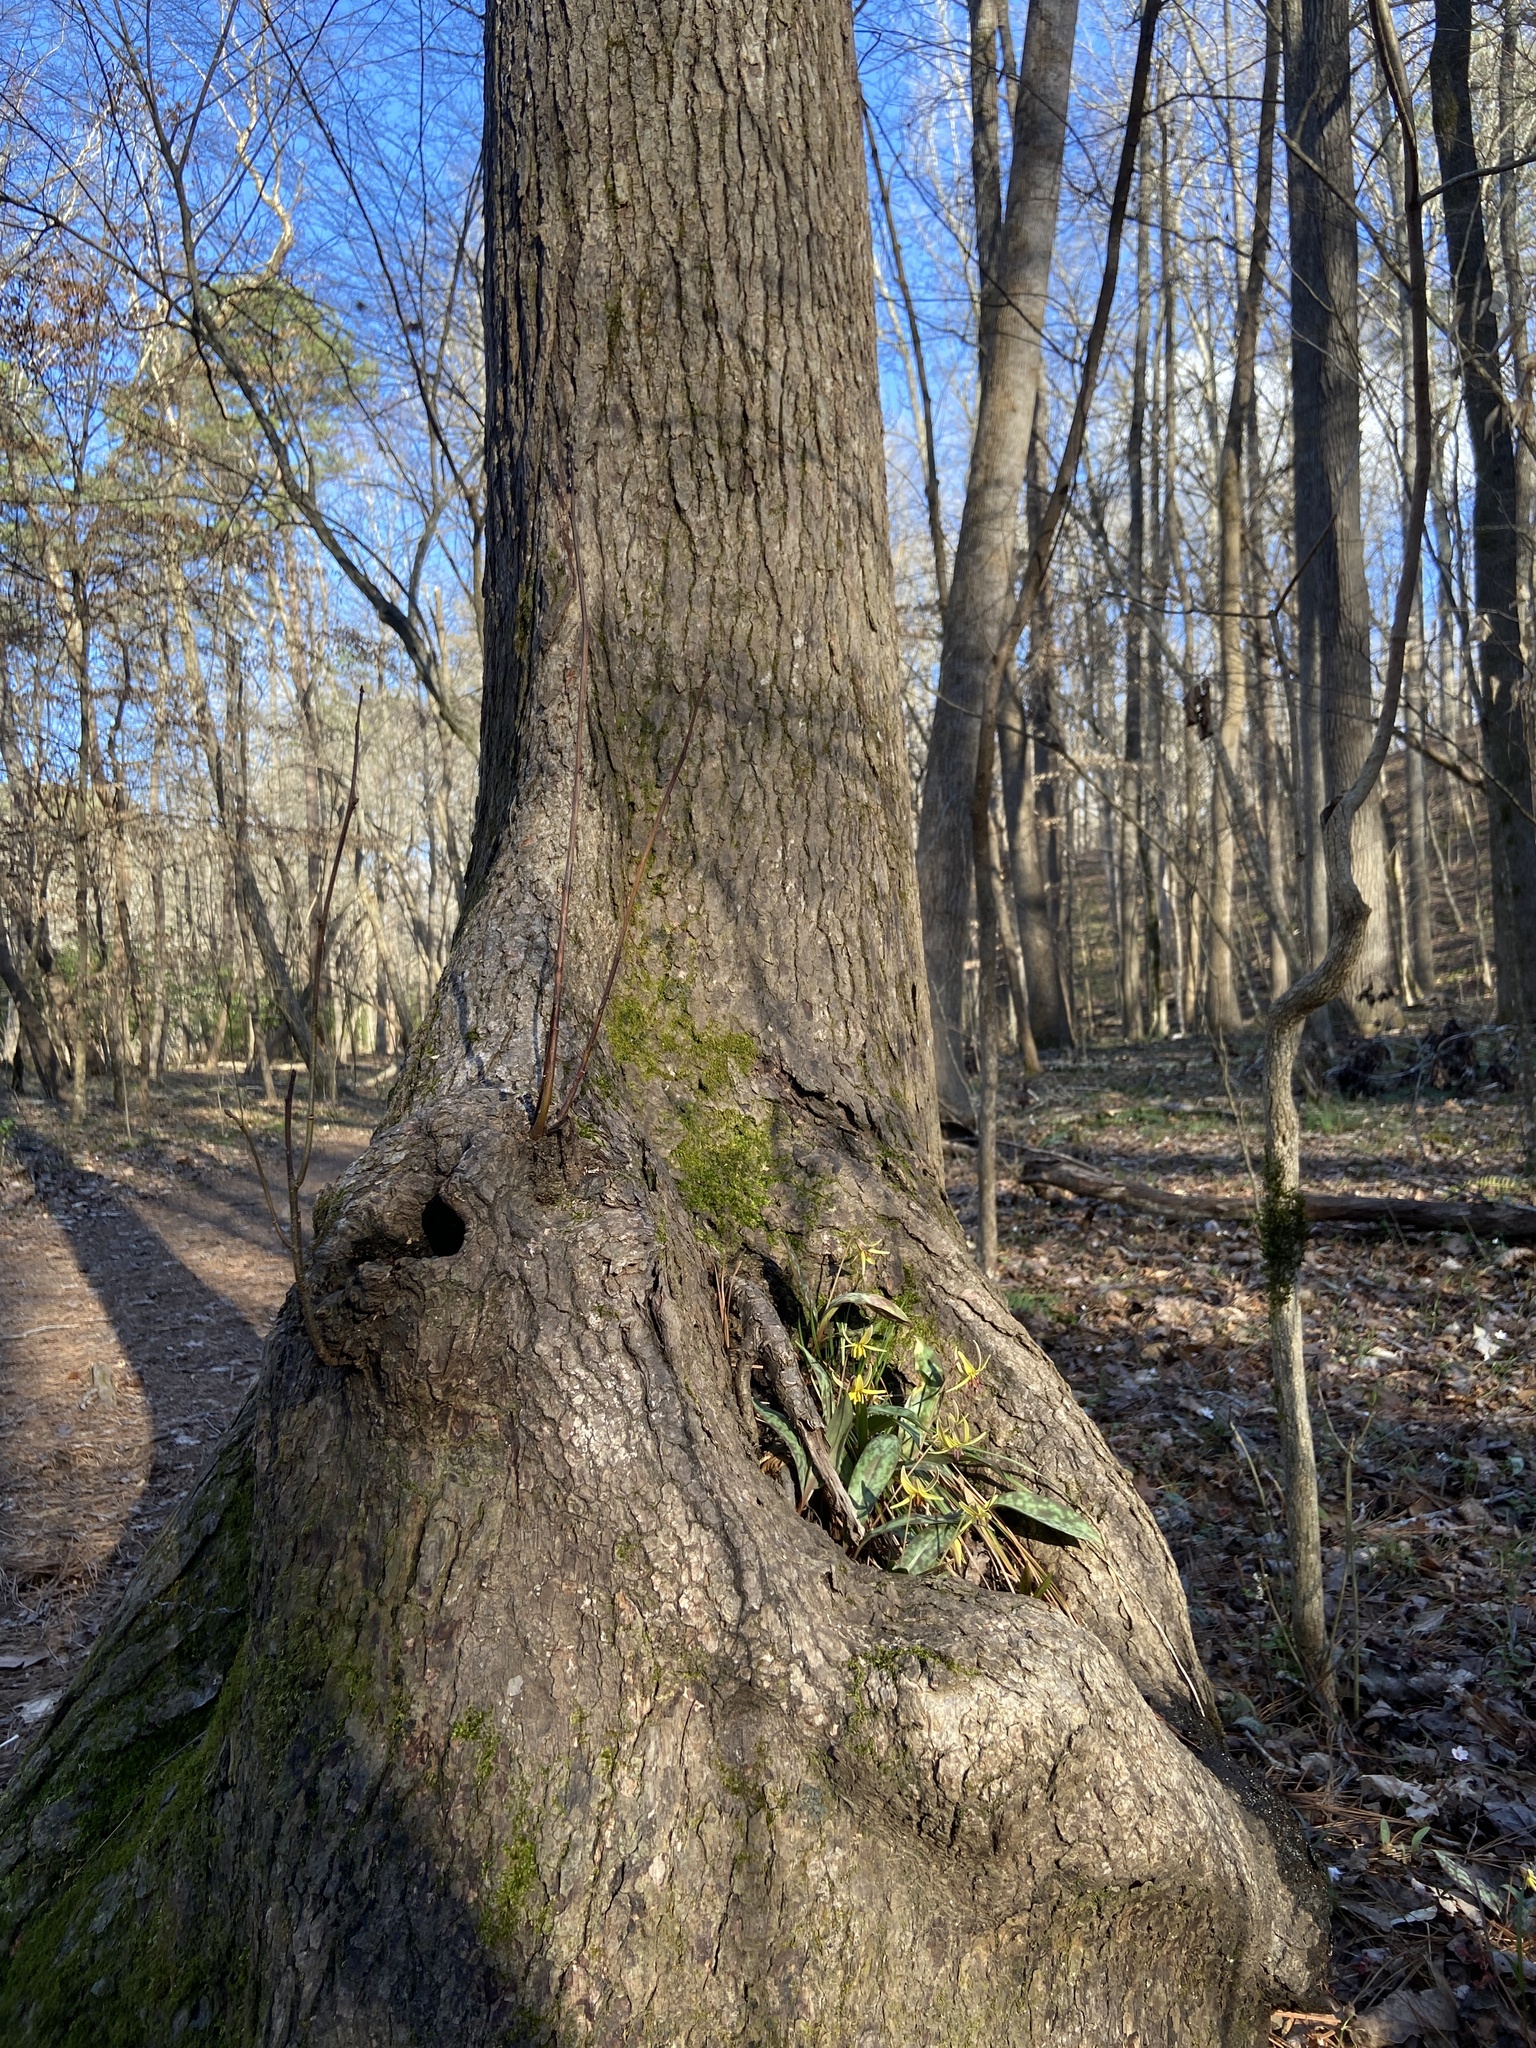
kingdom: Plantae
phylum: Tracheophyta
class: Liliopsida
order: Liliales
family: Liliaceae
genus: Erythronium
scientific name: Erythronium umbilicatum
